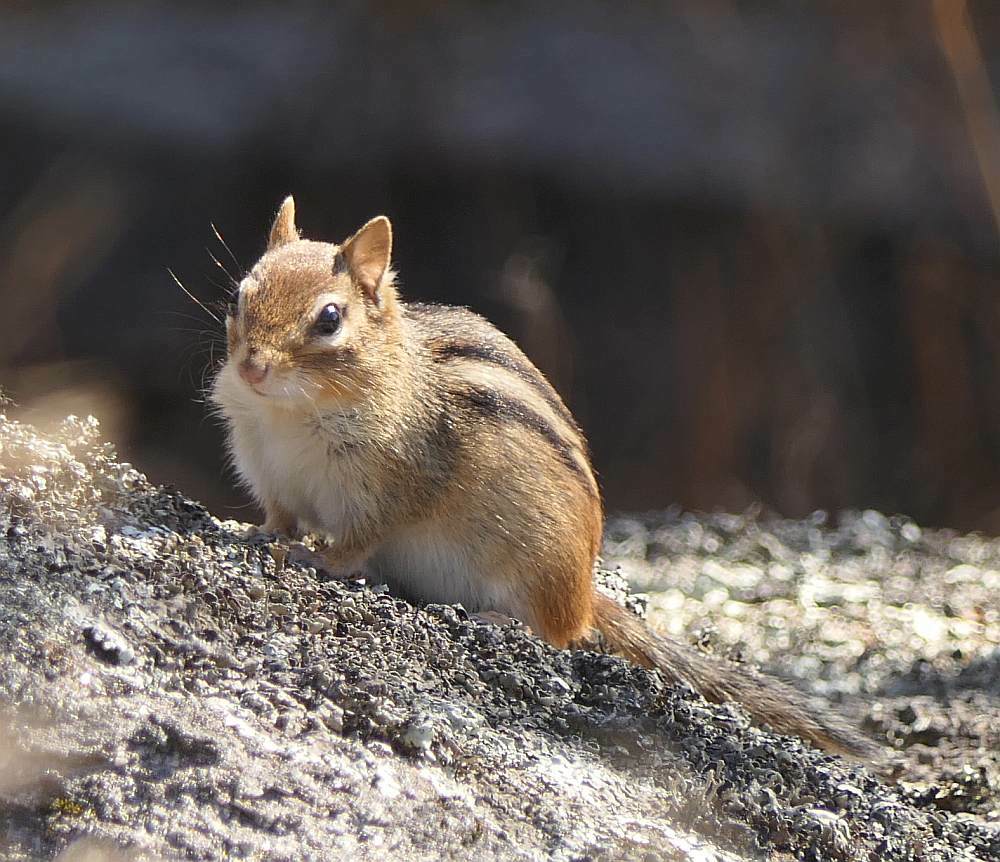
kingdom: Animalia
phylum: Chordata
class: Mammalia
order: Rodentia
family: Sciuridae
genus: Tamias
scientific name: Tamias striatus
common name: Eastern chipmunk
